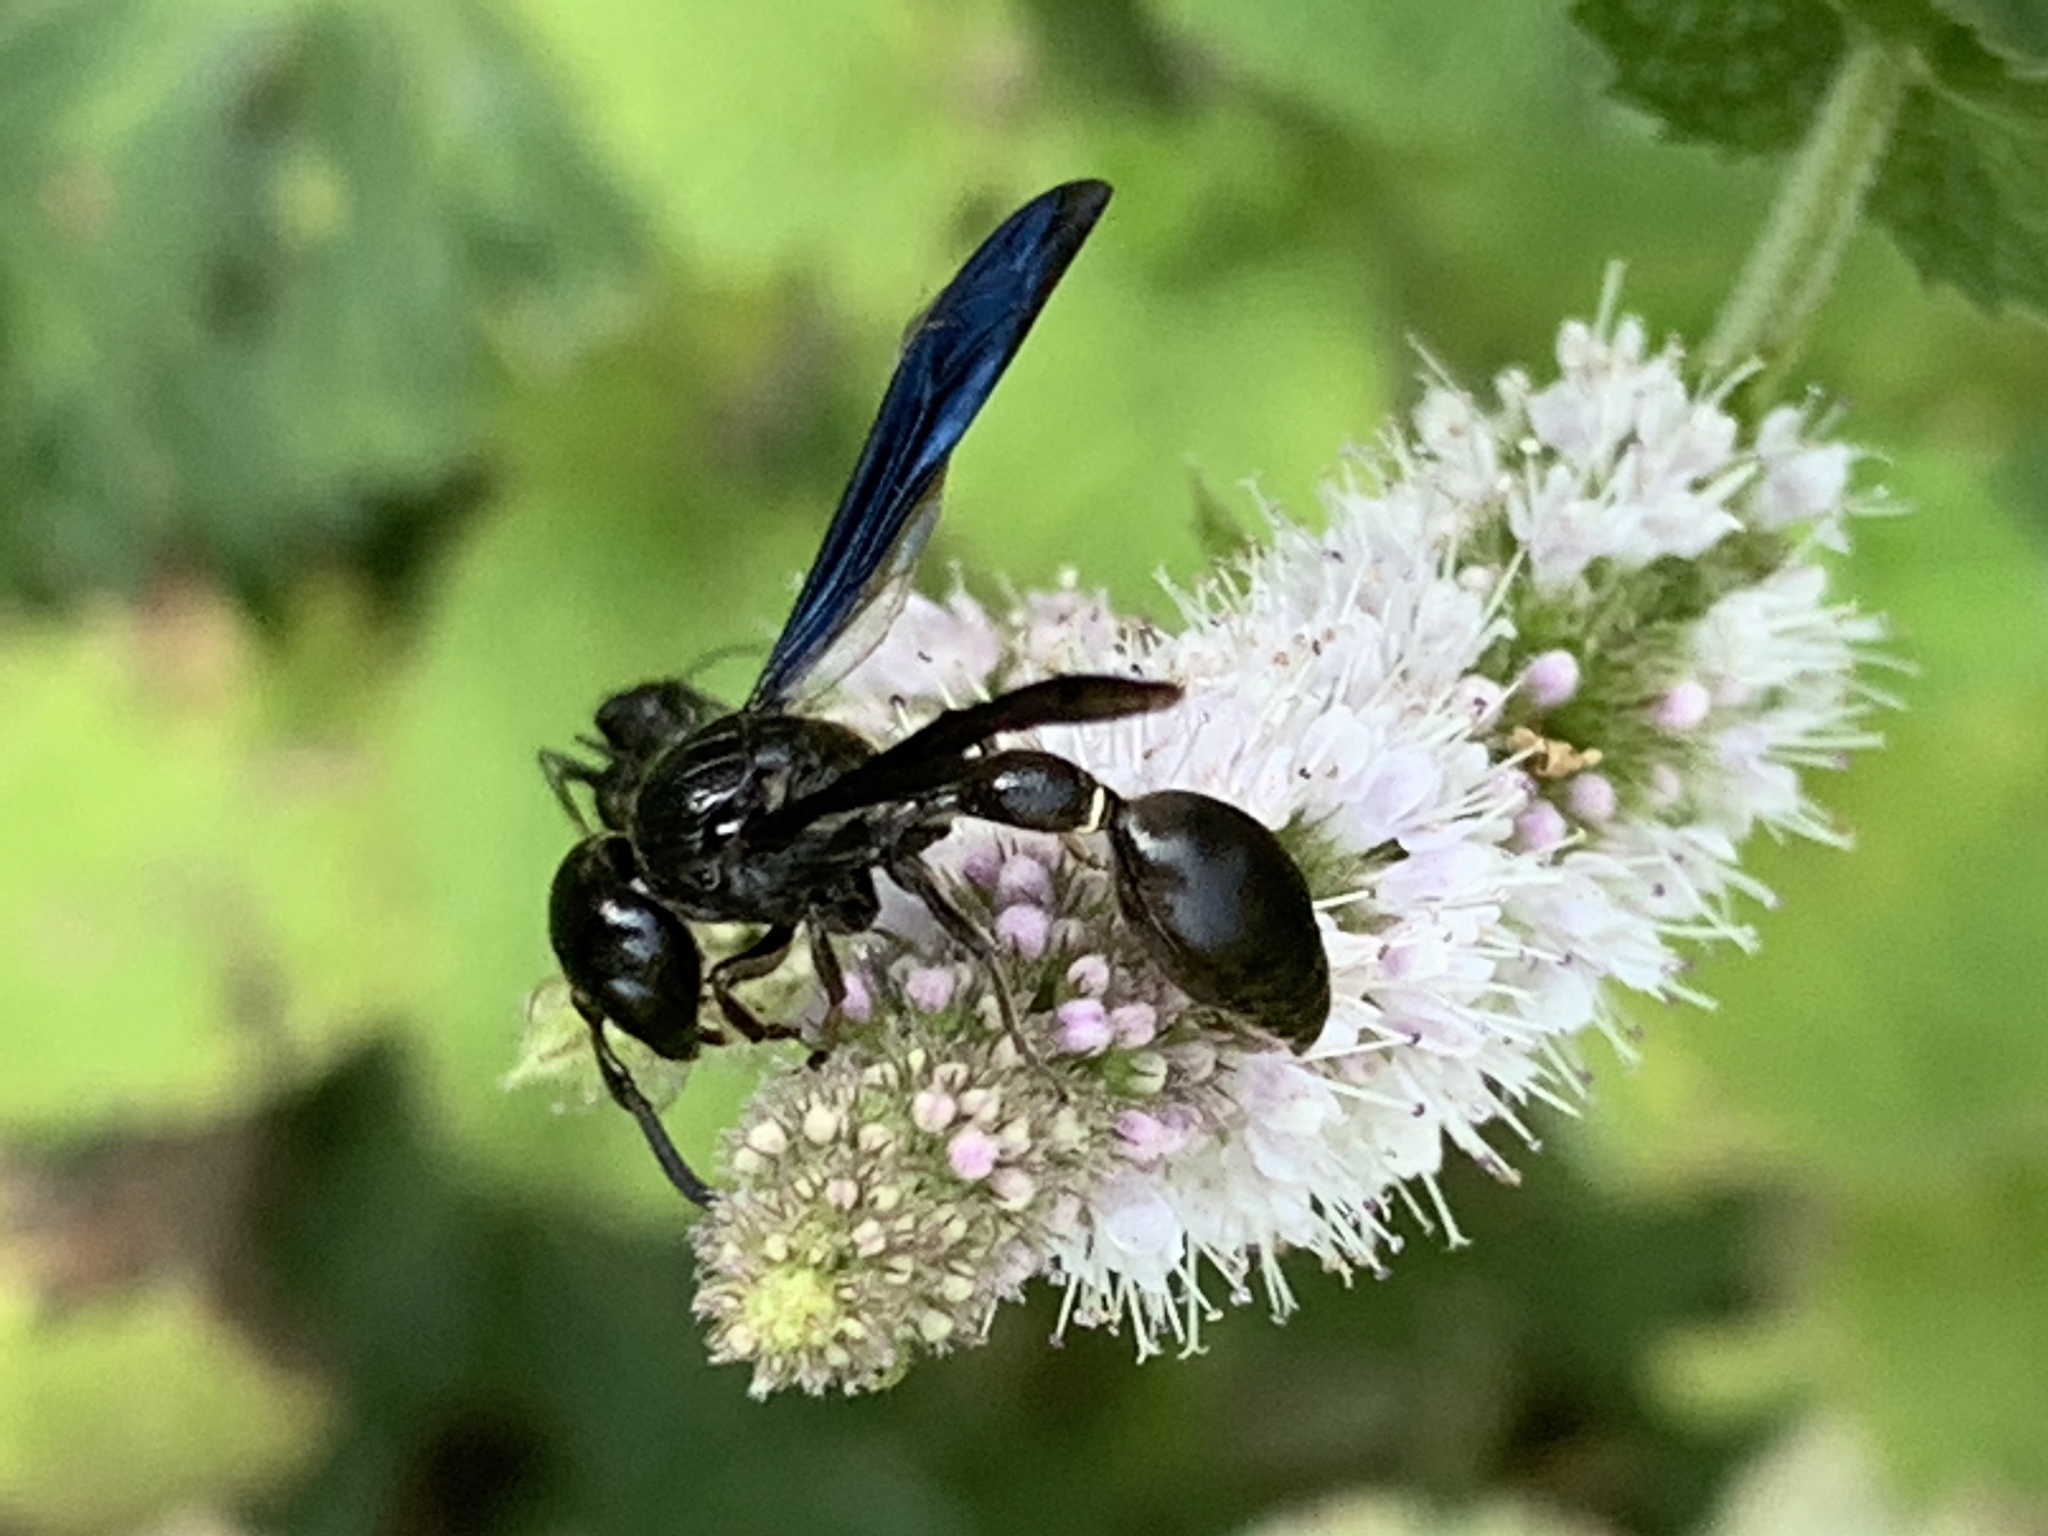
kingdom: Animalia
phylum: Arthropoda
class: Insecta
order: Hymenoptera
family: Eumenidae
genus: Zethus
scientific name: Zethus spinipes
